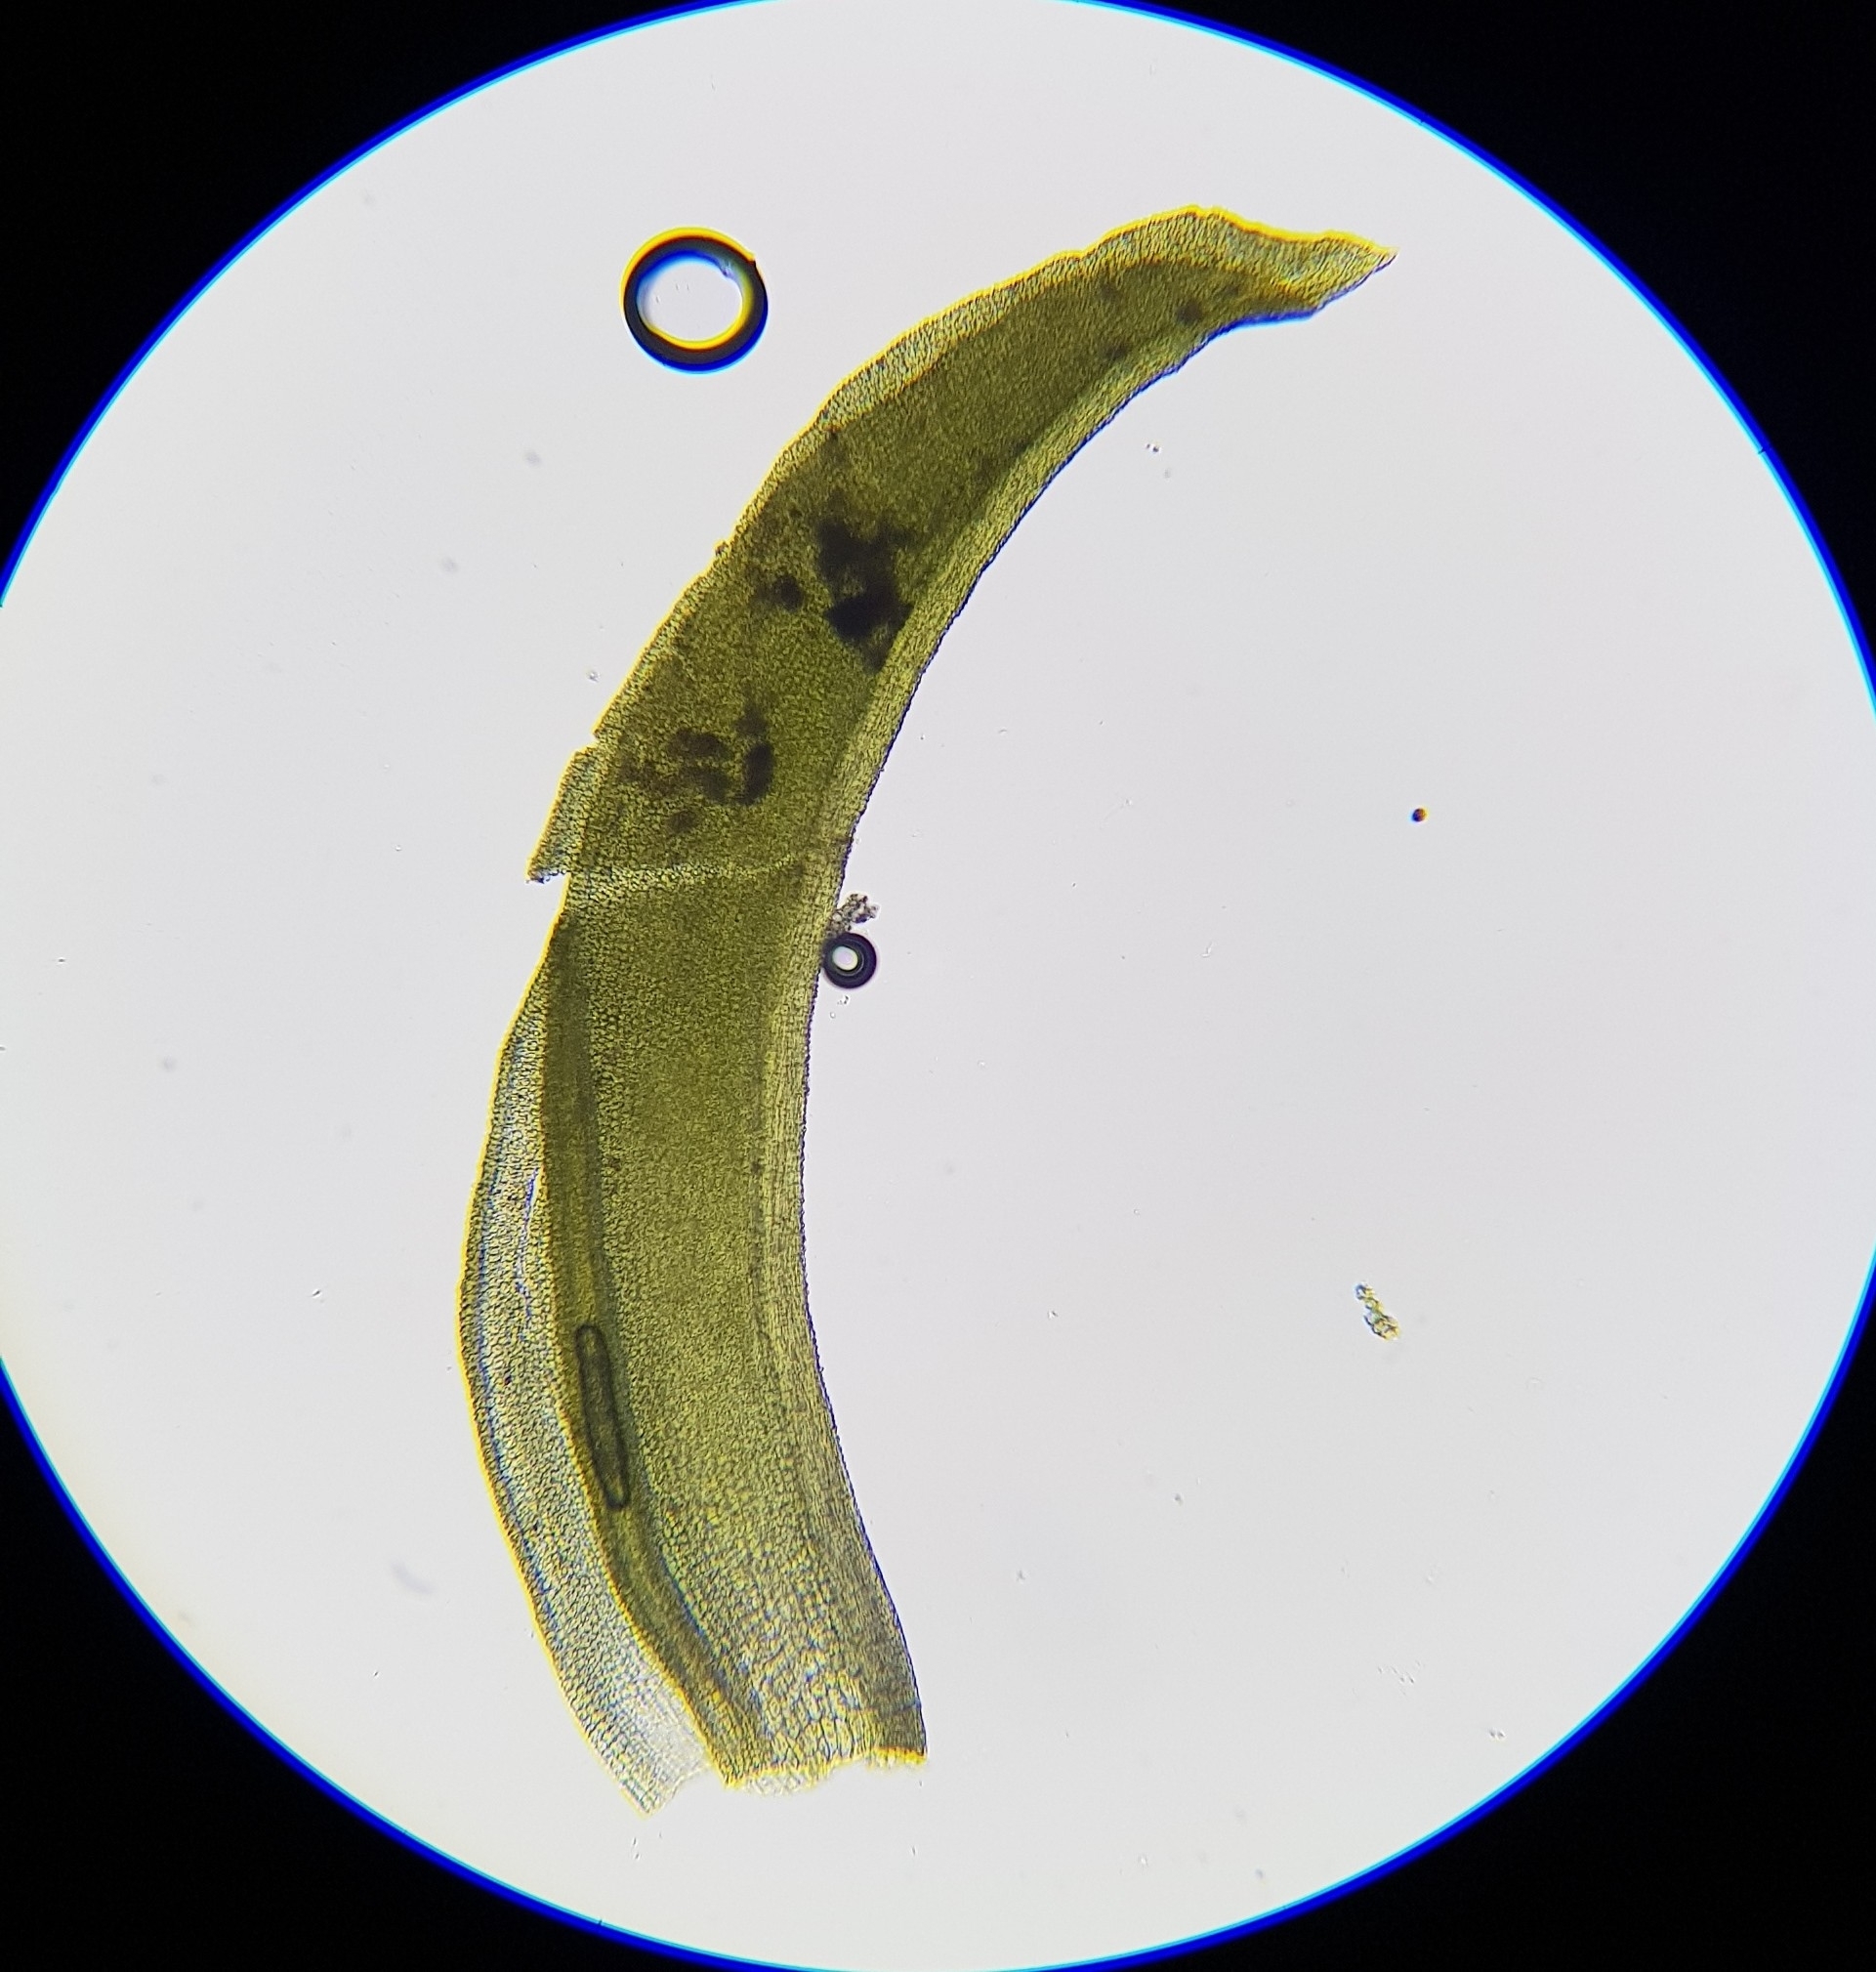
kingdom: Plantae
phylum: Bryophyta
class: Bryopsida
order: Pottiales
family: Pottiaceae
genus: Streblotrichum
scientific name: Streblotrichum convolutum
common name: Lesser bird's-claw beard-moss
